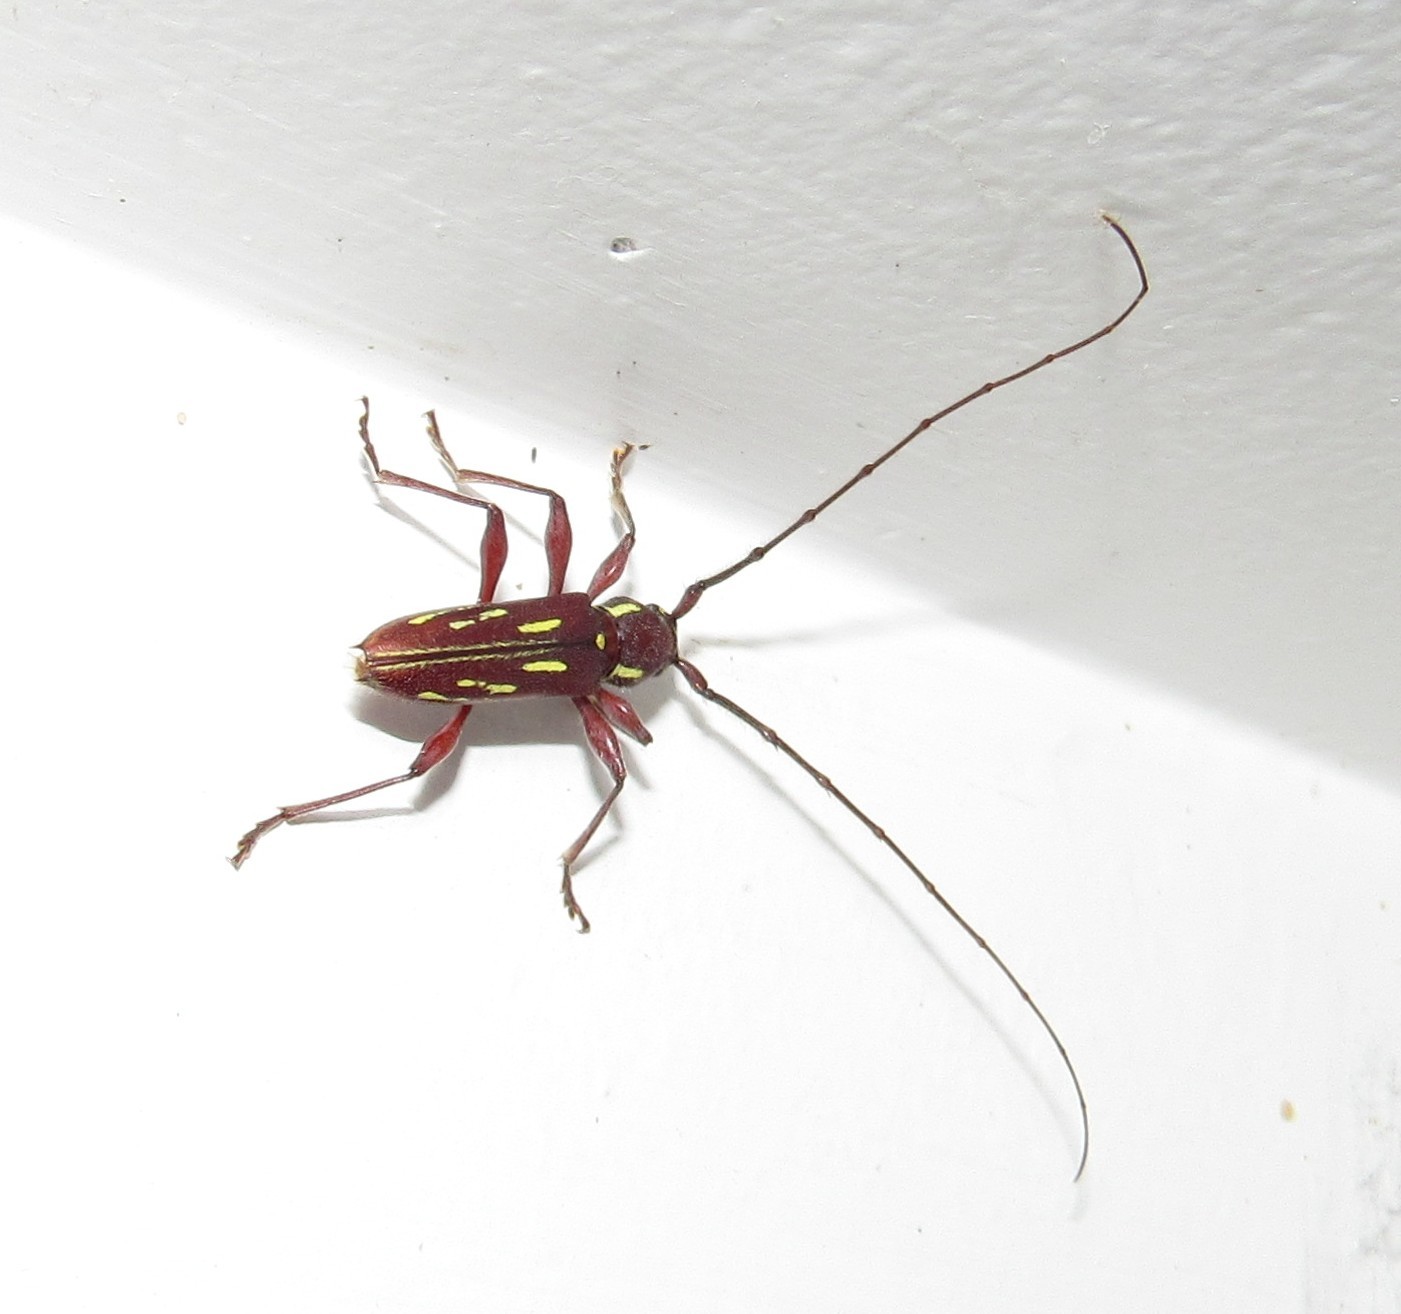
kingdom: Animalia
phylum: Arthropoda
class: Insecta
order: Coleoptera
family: Cerambycidae
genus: Ambonus
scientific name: Ambonus distinctus
